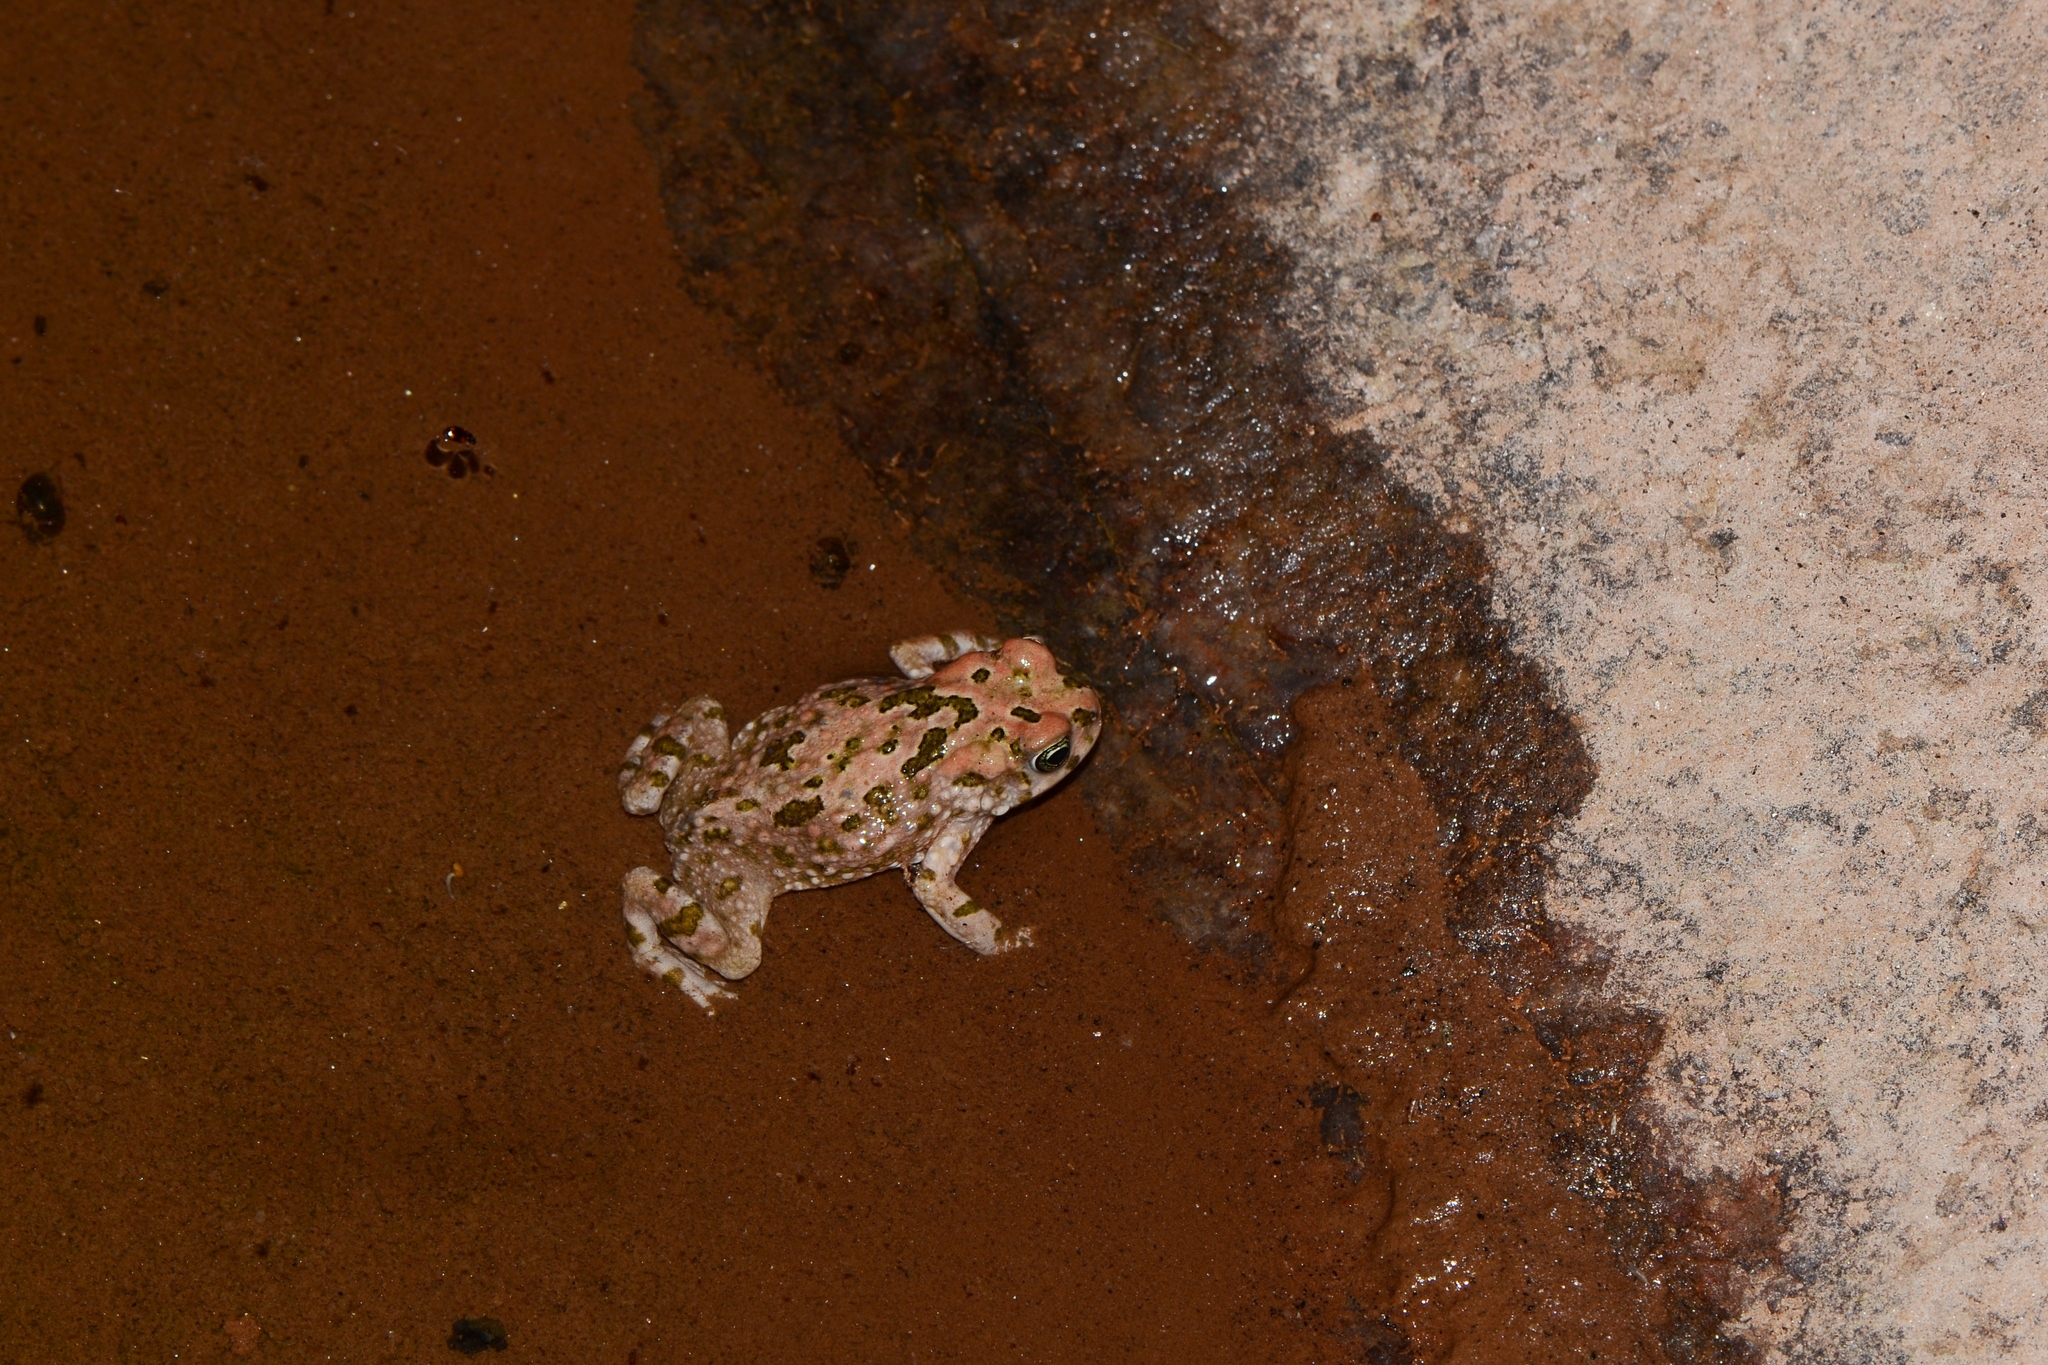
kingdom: Animalia
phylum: Chordata
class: Amphibia
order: Anura
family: Bufonidae
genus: Vandijkophrynus
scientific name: Vandijkophrynus robinsoni
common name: Paradise toad
